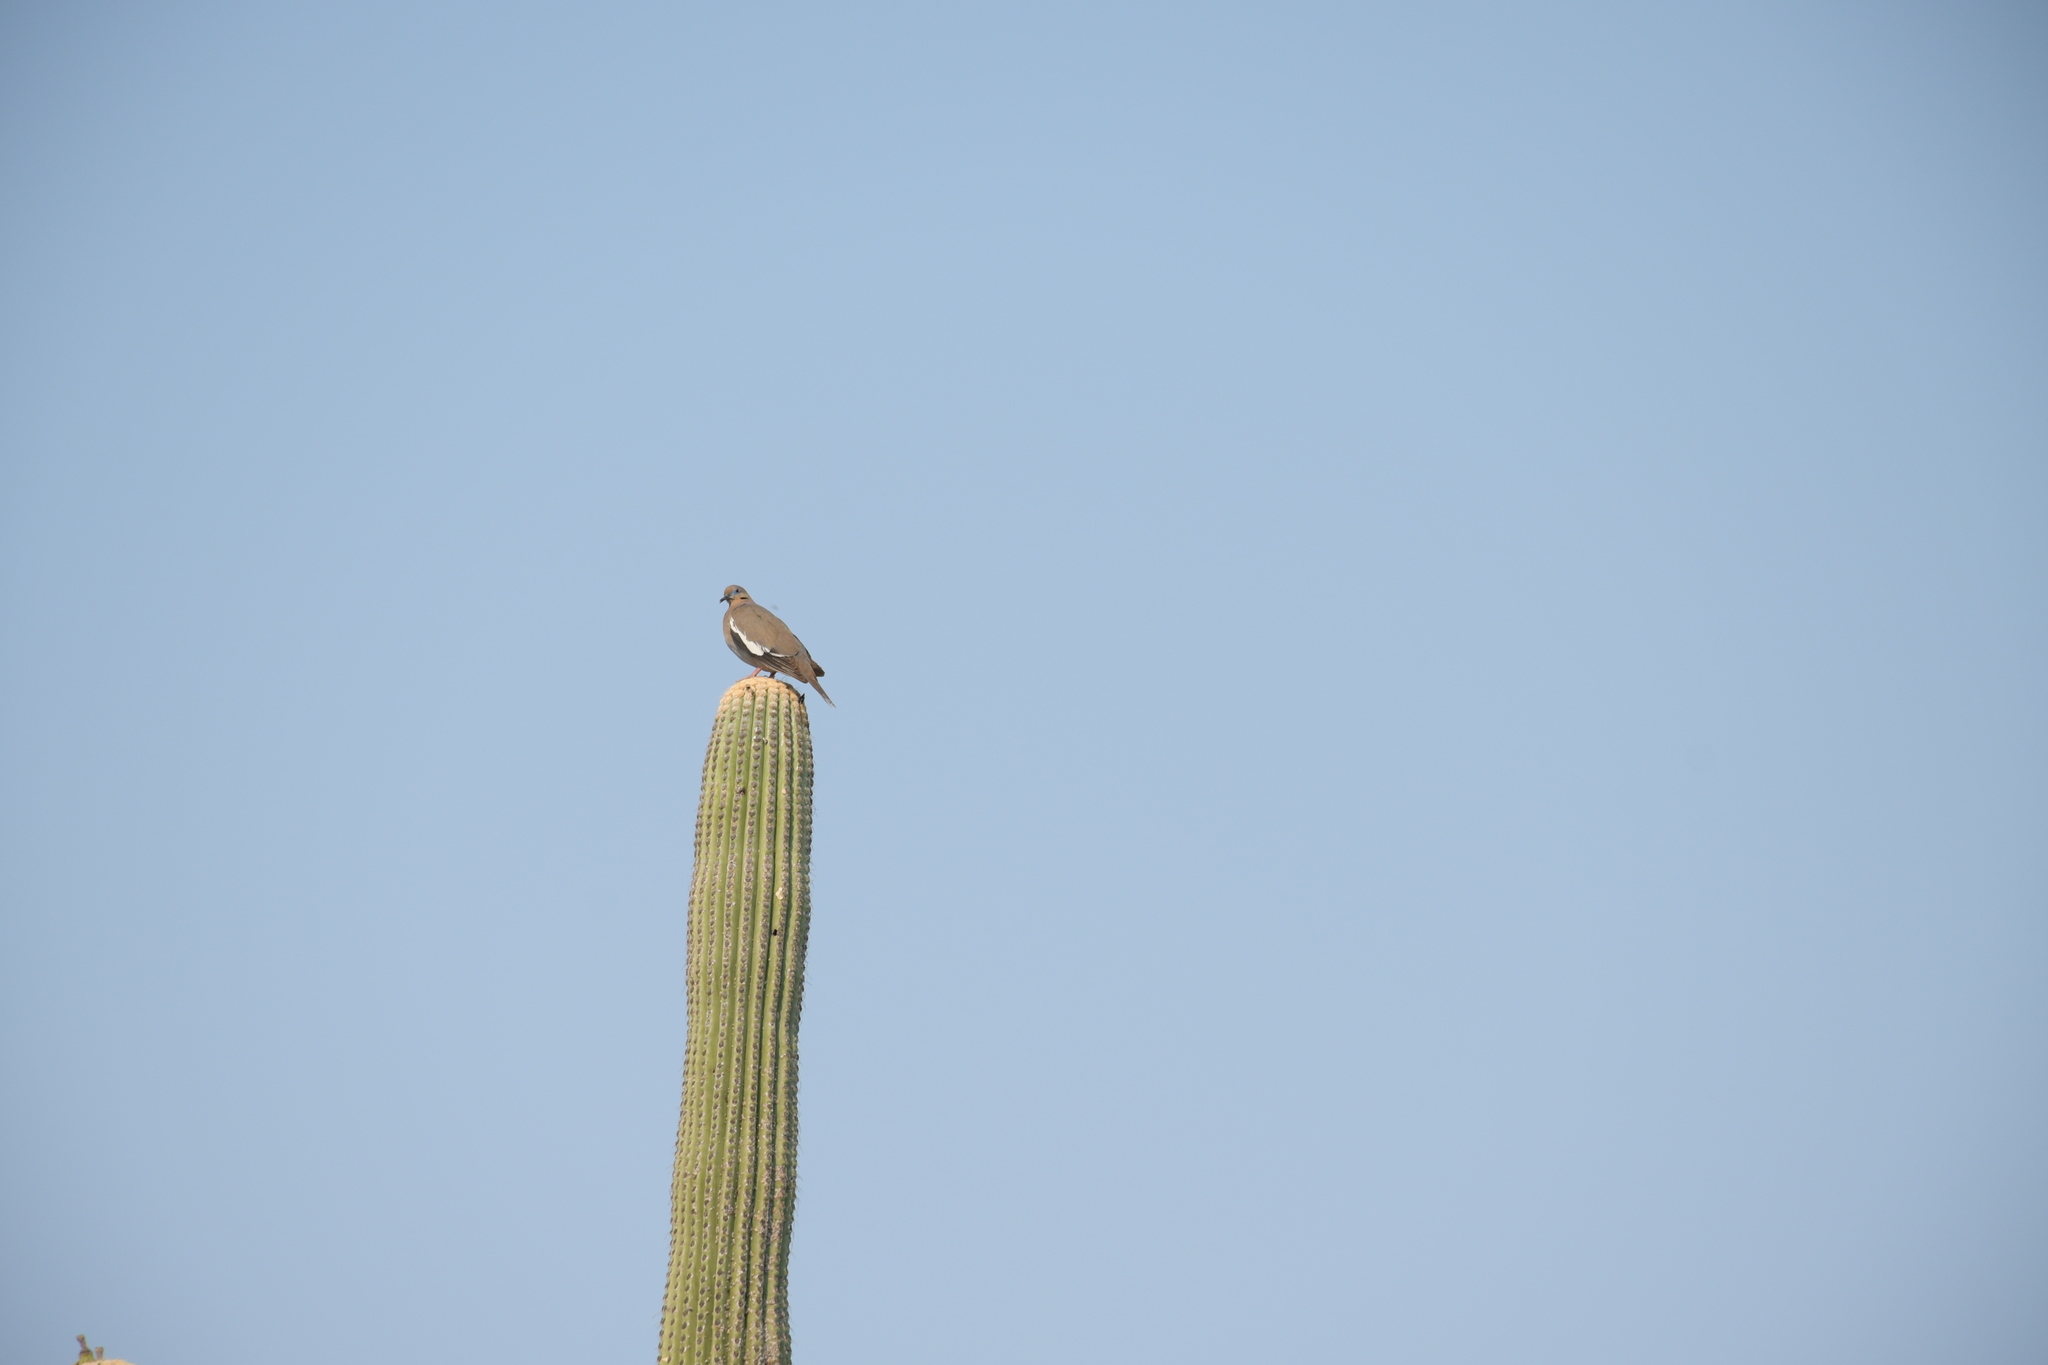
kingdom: Animalia
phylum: Chordata
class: Aves
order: Columbiformes
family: Columbidae
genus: Zenaida
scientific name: Zenaida asiatica
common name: White-winged dove
